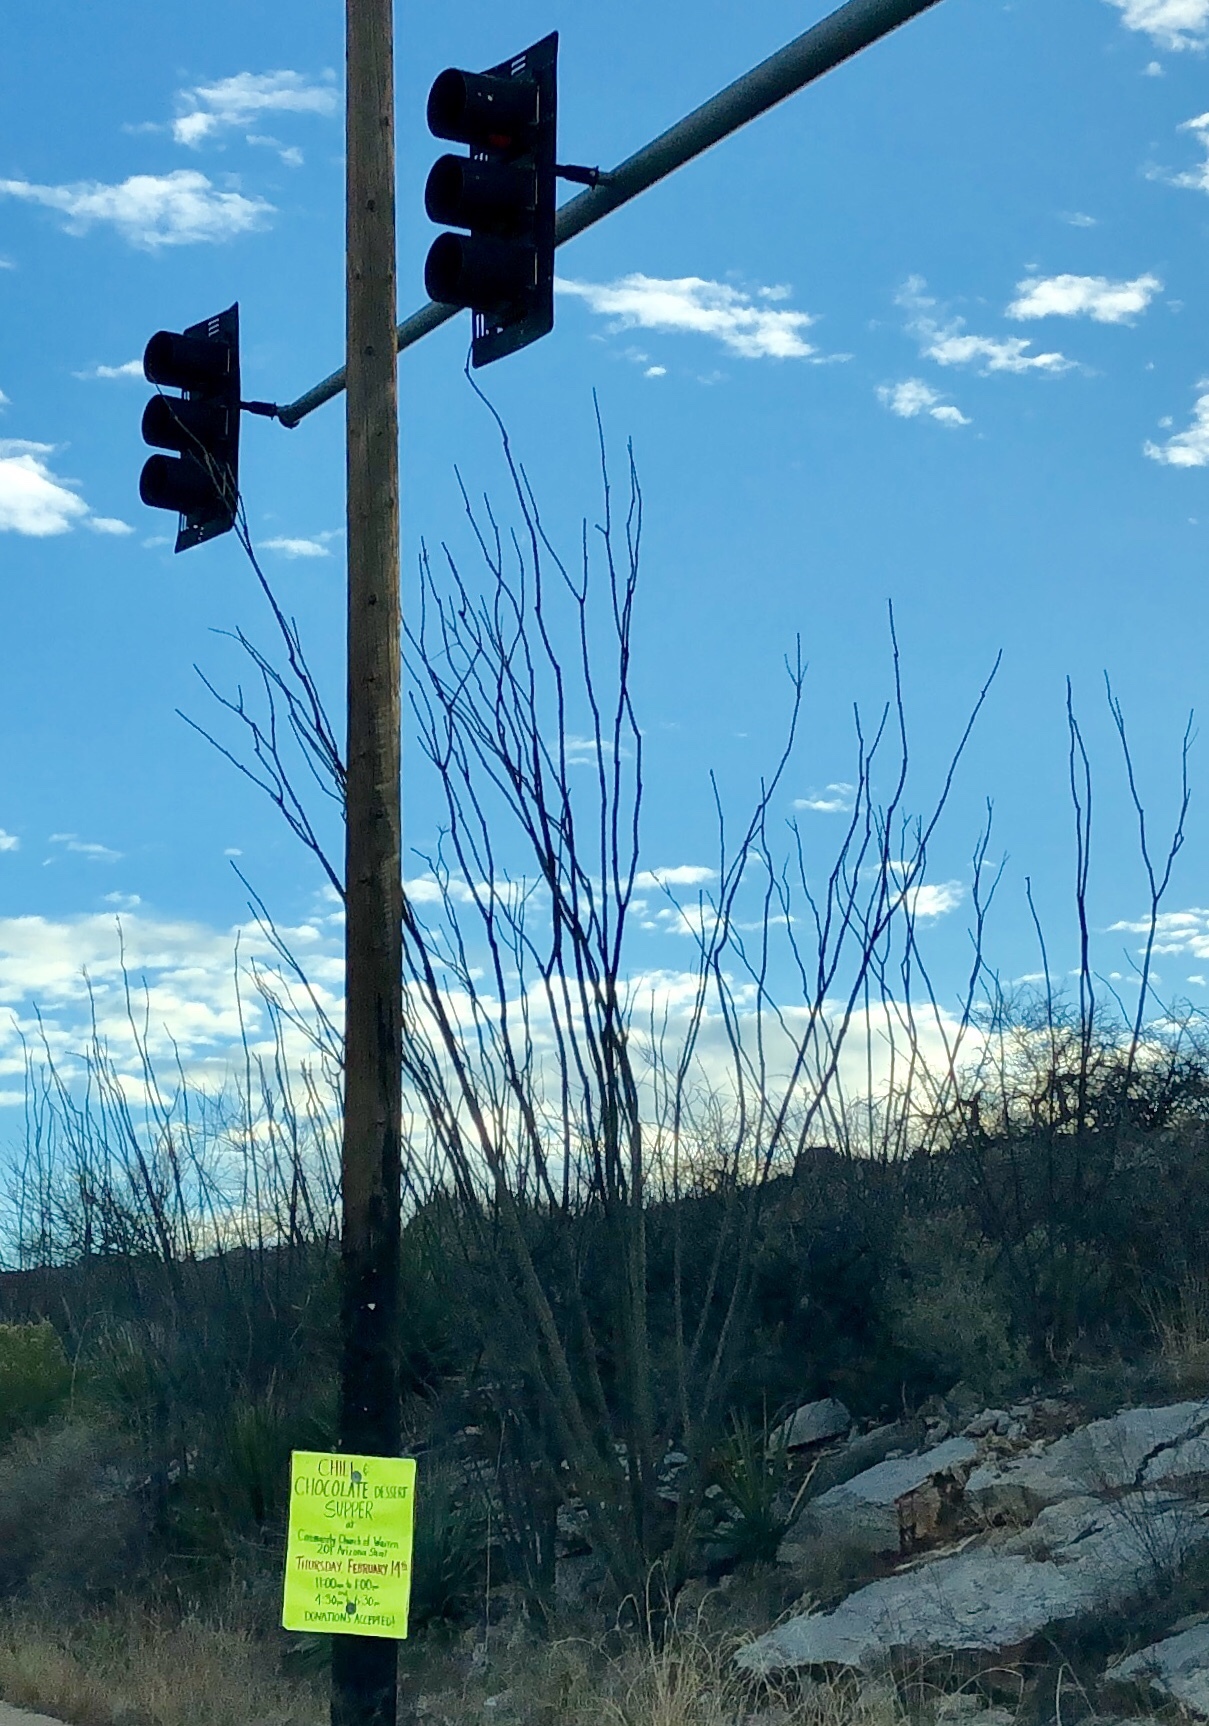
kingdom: Plantae
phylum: Tracheophyta
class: Magnoliopsida
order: Ericales
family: Fouquieriaceae
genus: Fouquieria
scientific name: Fouquieria splendens
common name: Vine-cactus
